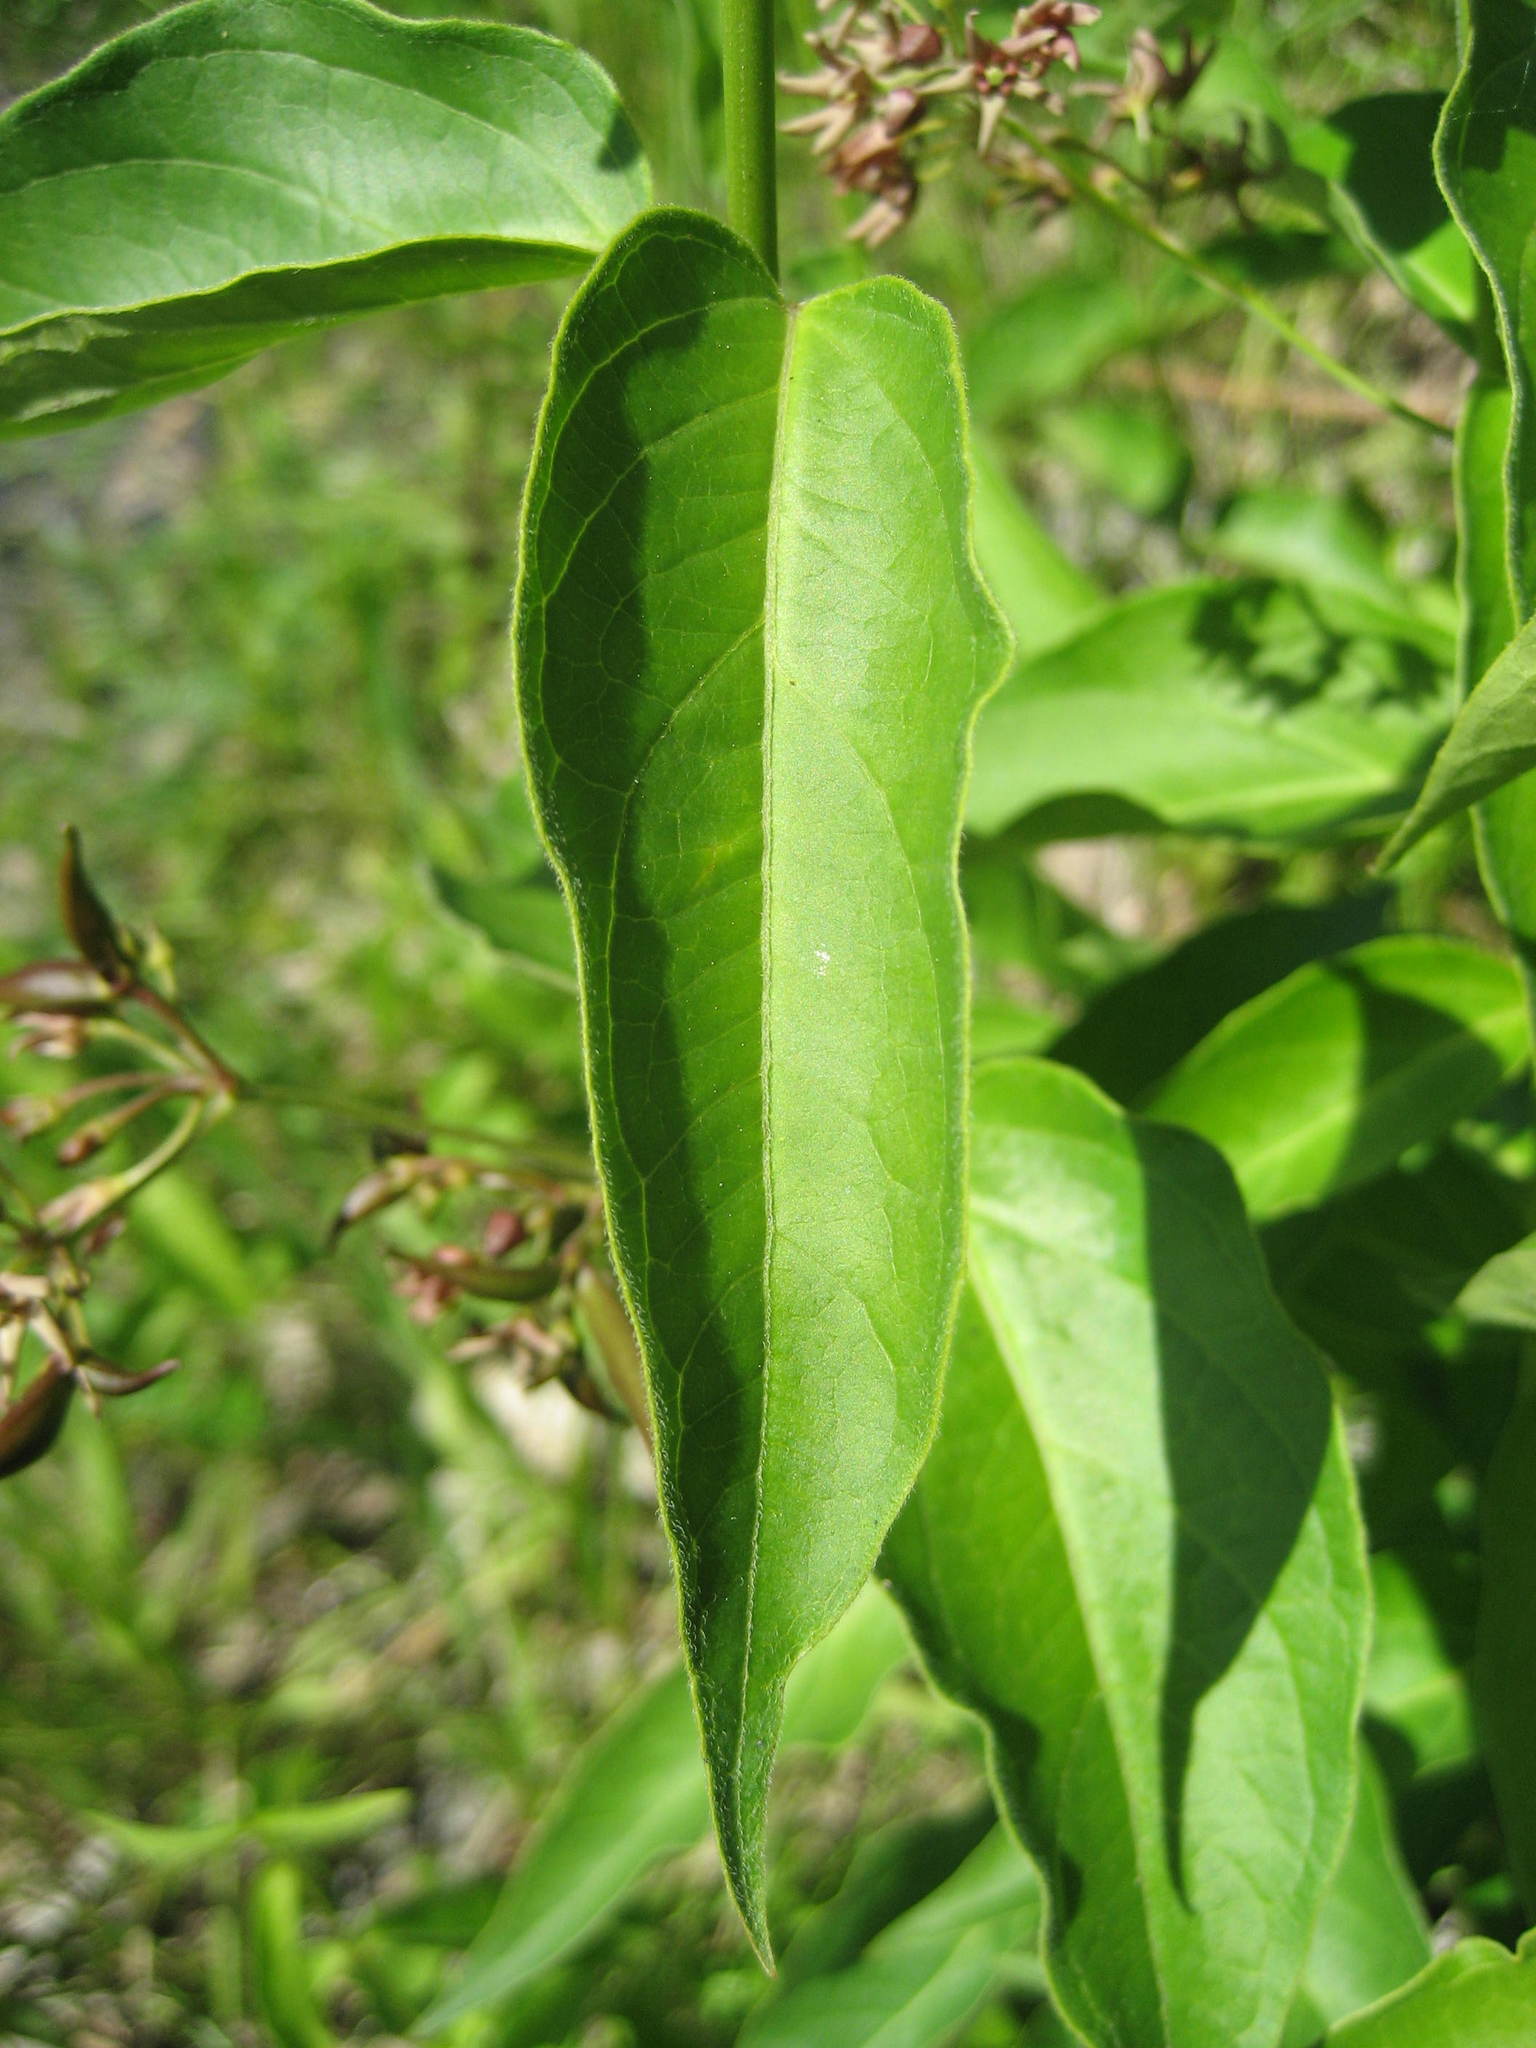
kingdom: Plantae
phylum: Tracheophyta
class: Magnoliopsida
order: Gentianales
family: Apocynaceae
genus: Vincetoxicum
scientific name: Vincetoxicum rossicum
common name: Dog-strangling vine
